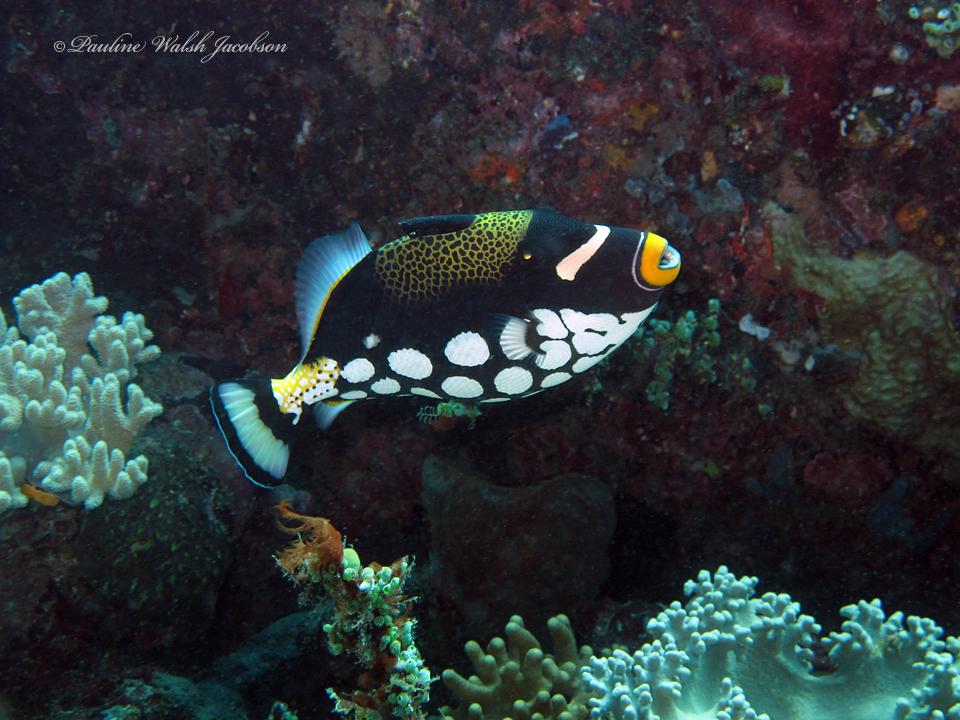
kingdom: Animalia
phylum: Chordata
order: Tetraodontiformes
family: Balistidae
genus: Balistoides
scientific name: Balistoides conspicillum
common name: Clown triggerfish
